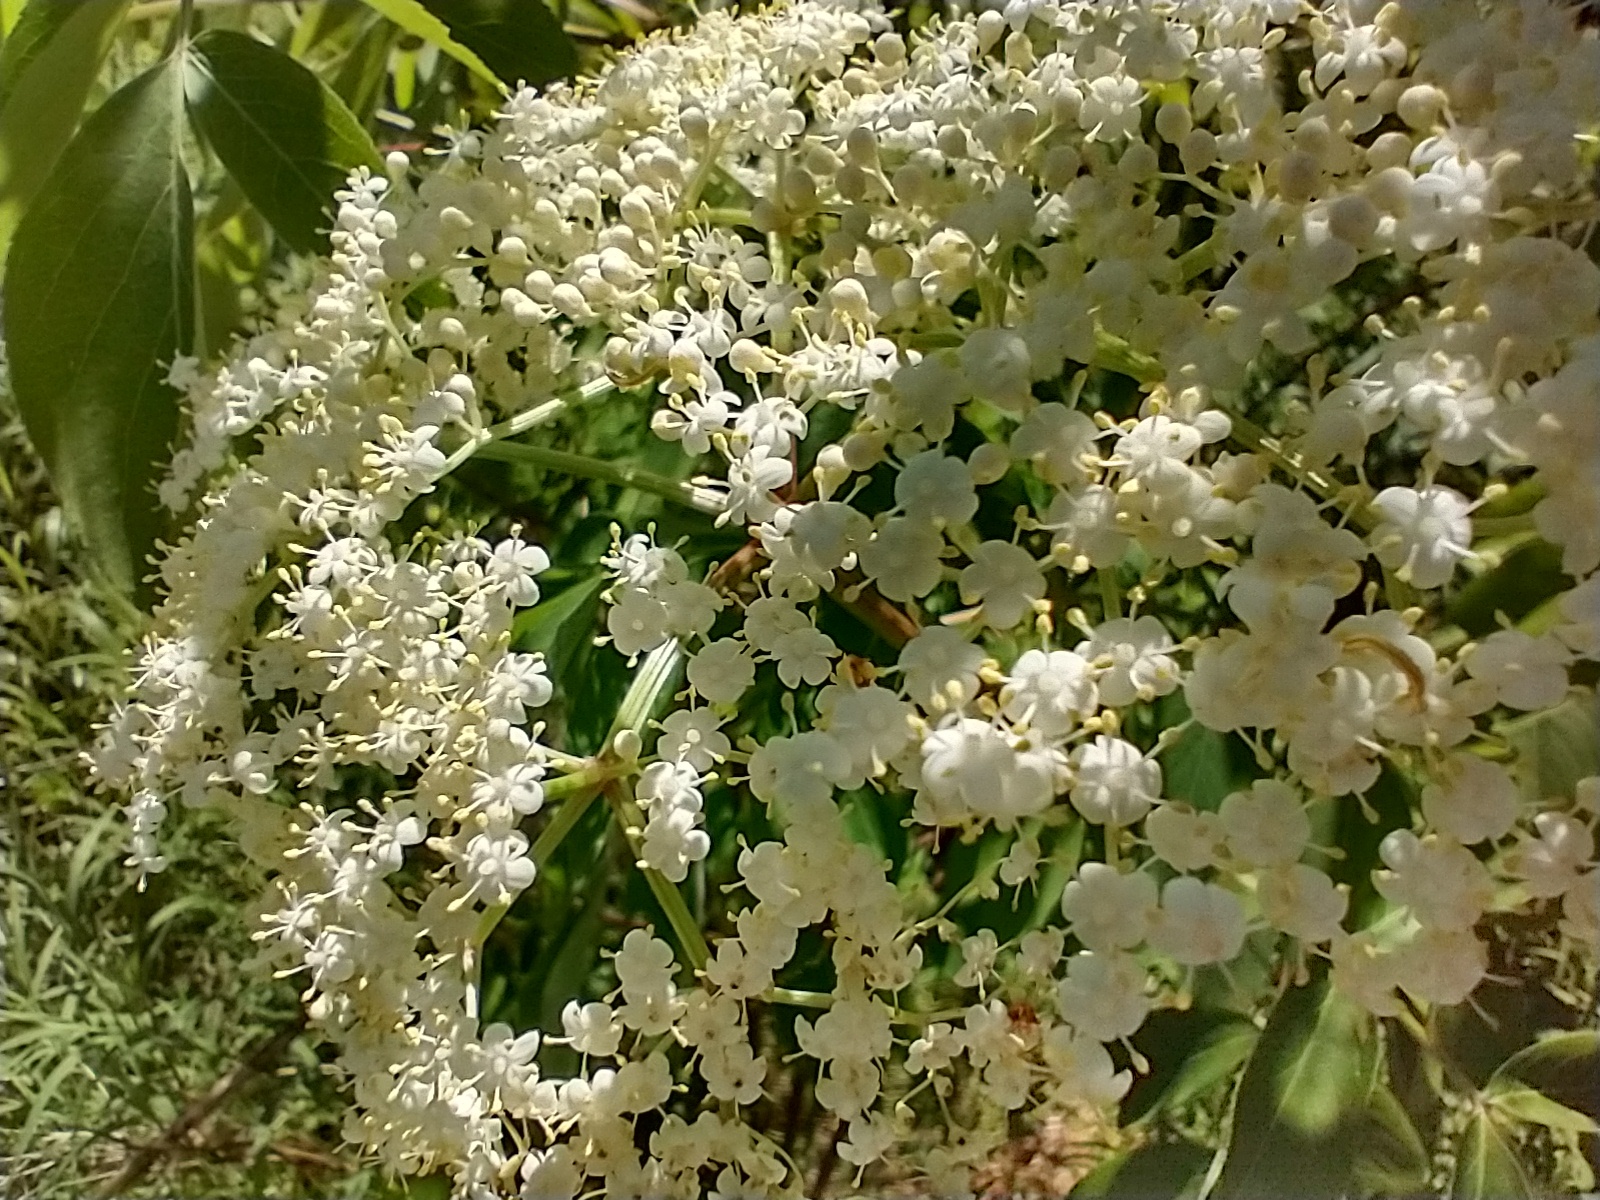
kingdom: Plantae
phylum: Tracheophyta
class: Magnoliopsida
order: Dipsacales
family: Viburnaceae
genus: Sambucus
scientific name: Sambucus canadensis
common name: American elder
